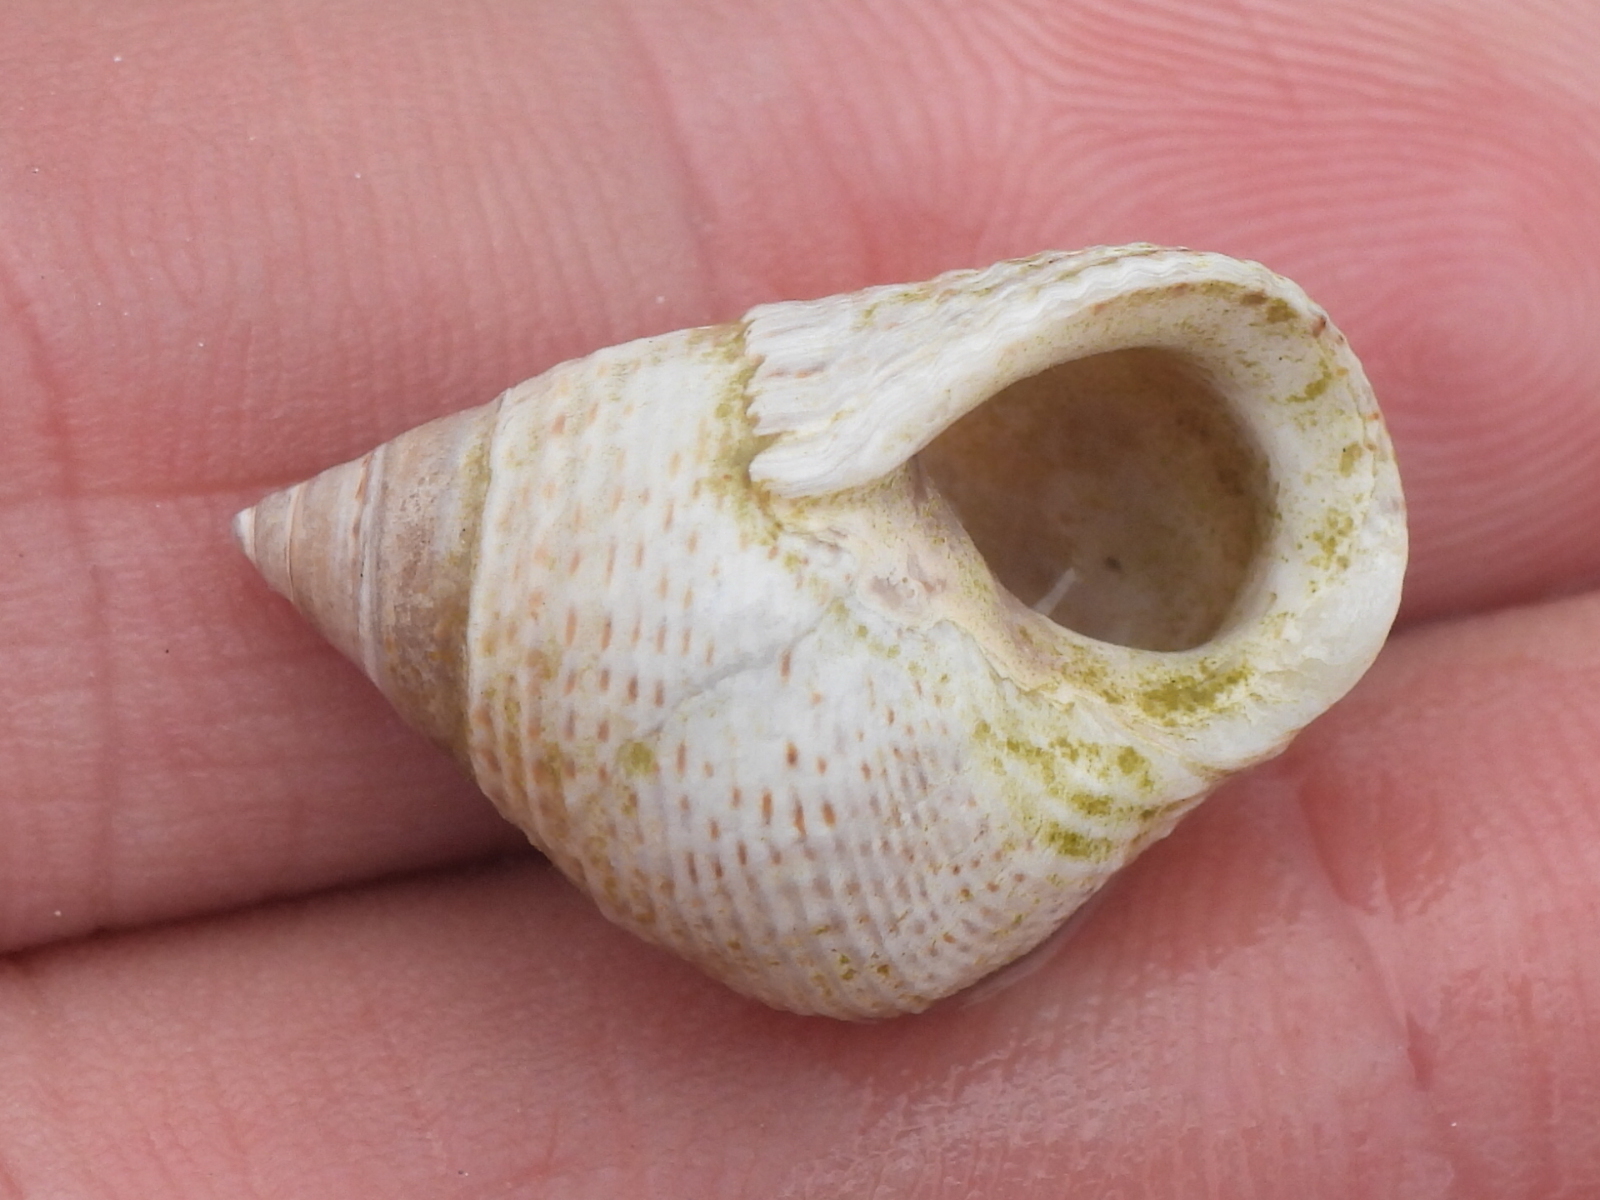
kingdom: Animalia
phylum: Mollusca
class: Gastropoda
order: Littorinimorpha
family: Littorinidae
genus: Littoraria
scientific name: Littoraria irrorata
